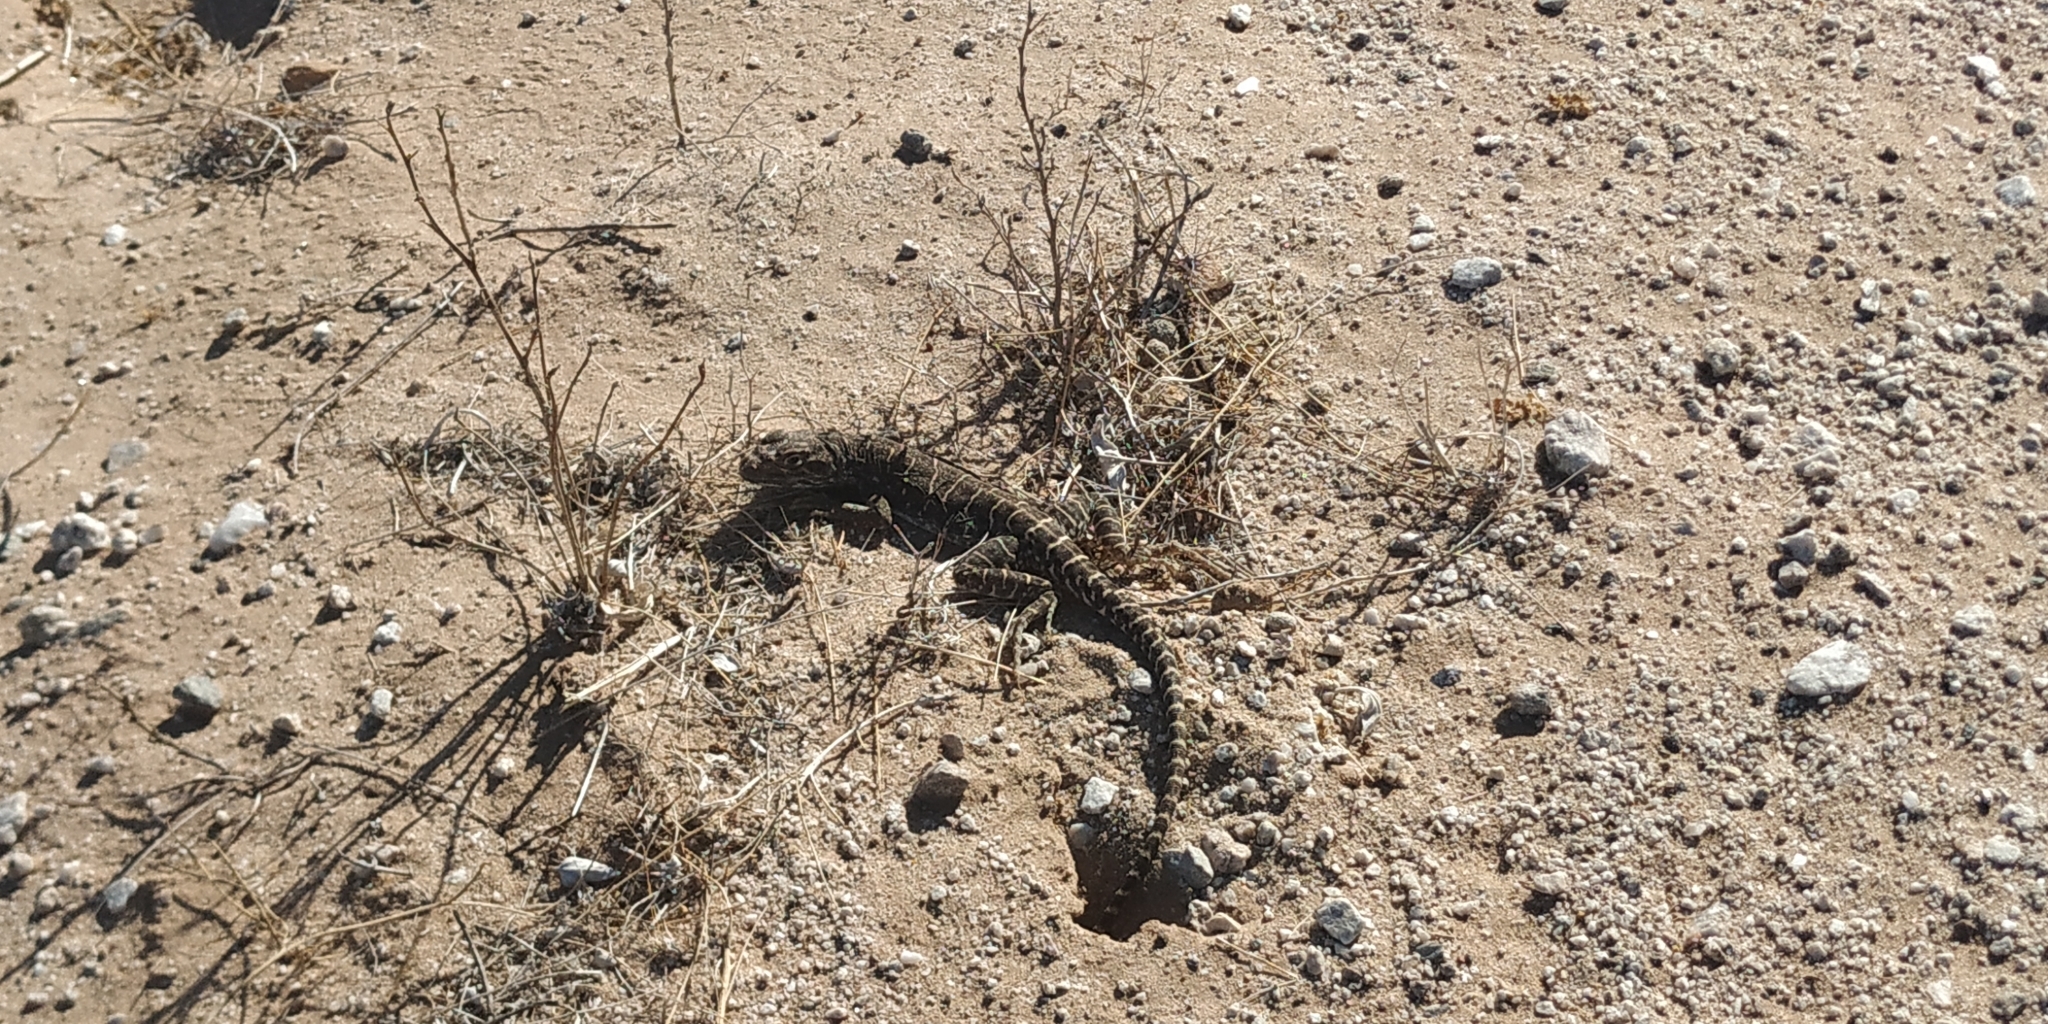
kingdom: Animalia
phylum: Chordata
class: Squamata
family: Crotaphytidae
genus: Gambelia
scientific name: Gambelia wislizenii
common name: Longnose leopard lizard
